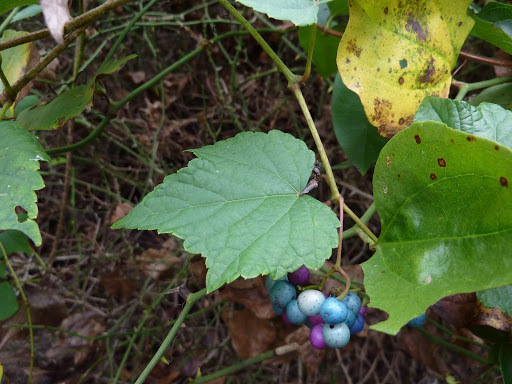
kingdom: Plantae
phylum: Tracheophyta
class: Magnoliopsida
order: Vitales
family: Vitaceae
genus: Ampelopsis
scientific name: Ampelopsis glandulosa
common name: Amur peppervine
